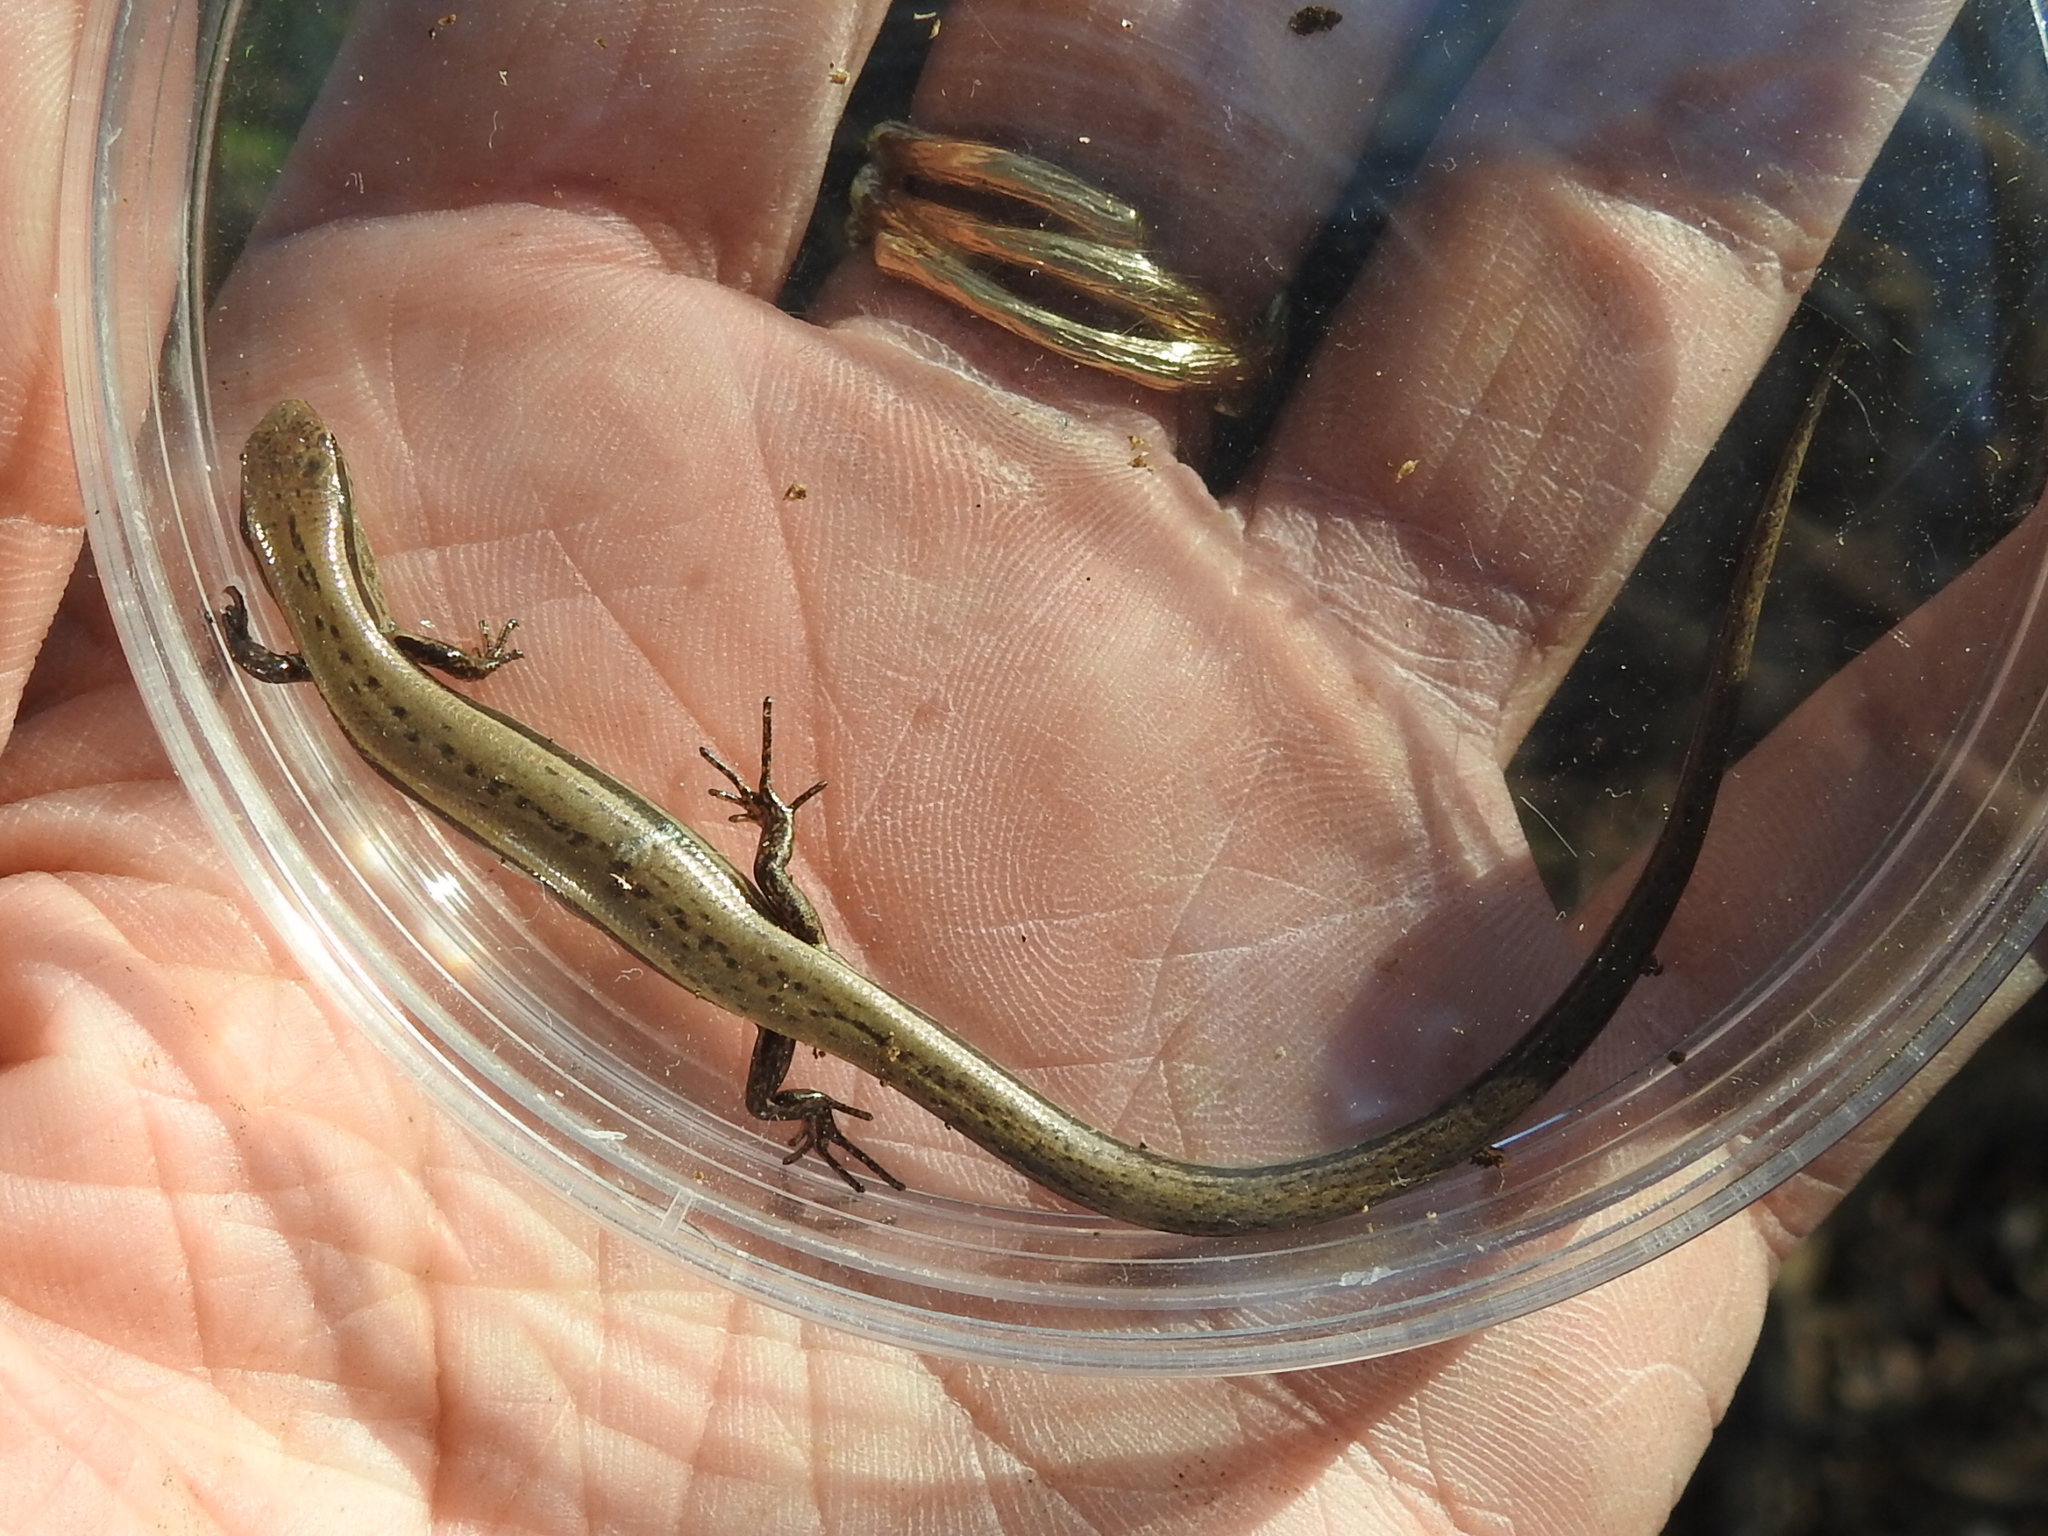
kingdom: Animalia
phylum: Chordata
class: Squamata
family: Scincidae
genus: Scincella
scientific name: Scincella lateralis
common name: Ground skink
